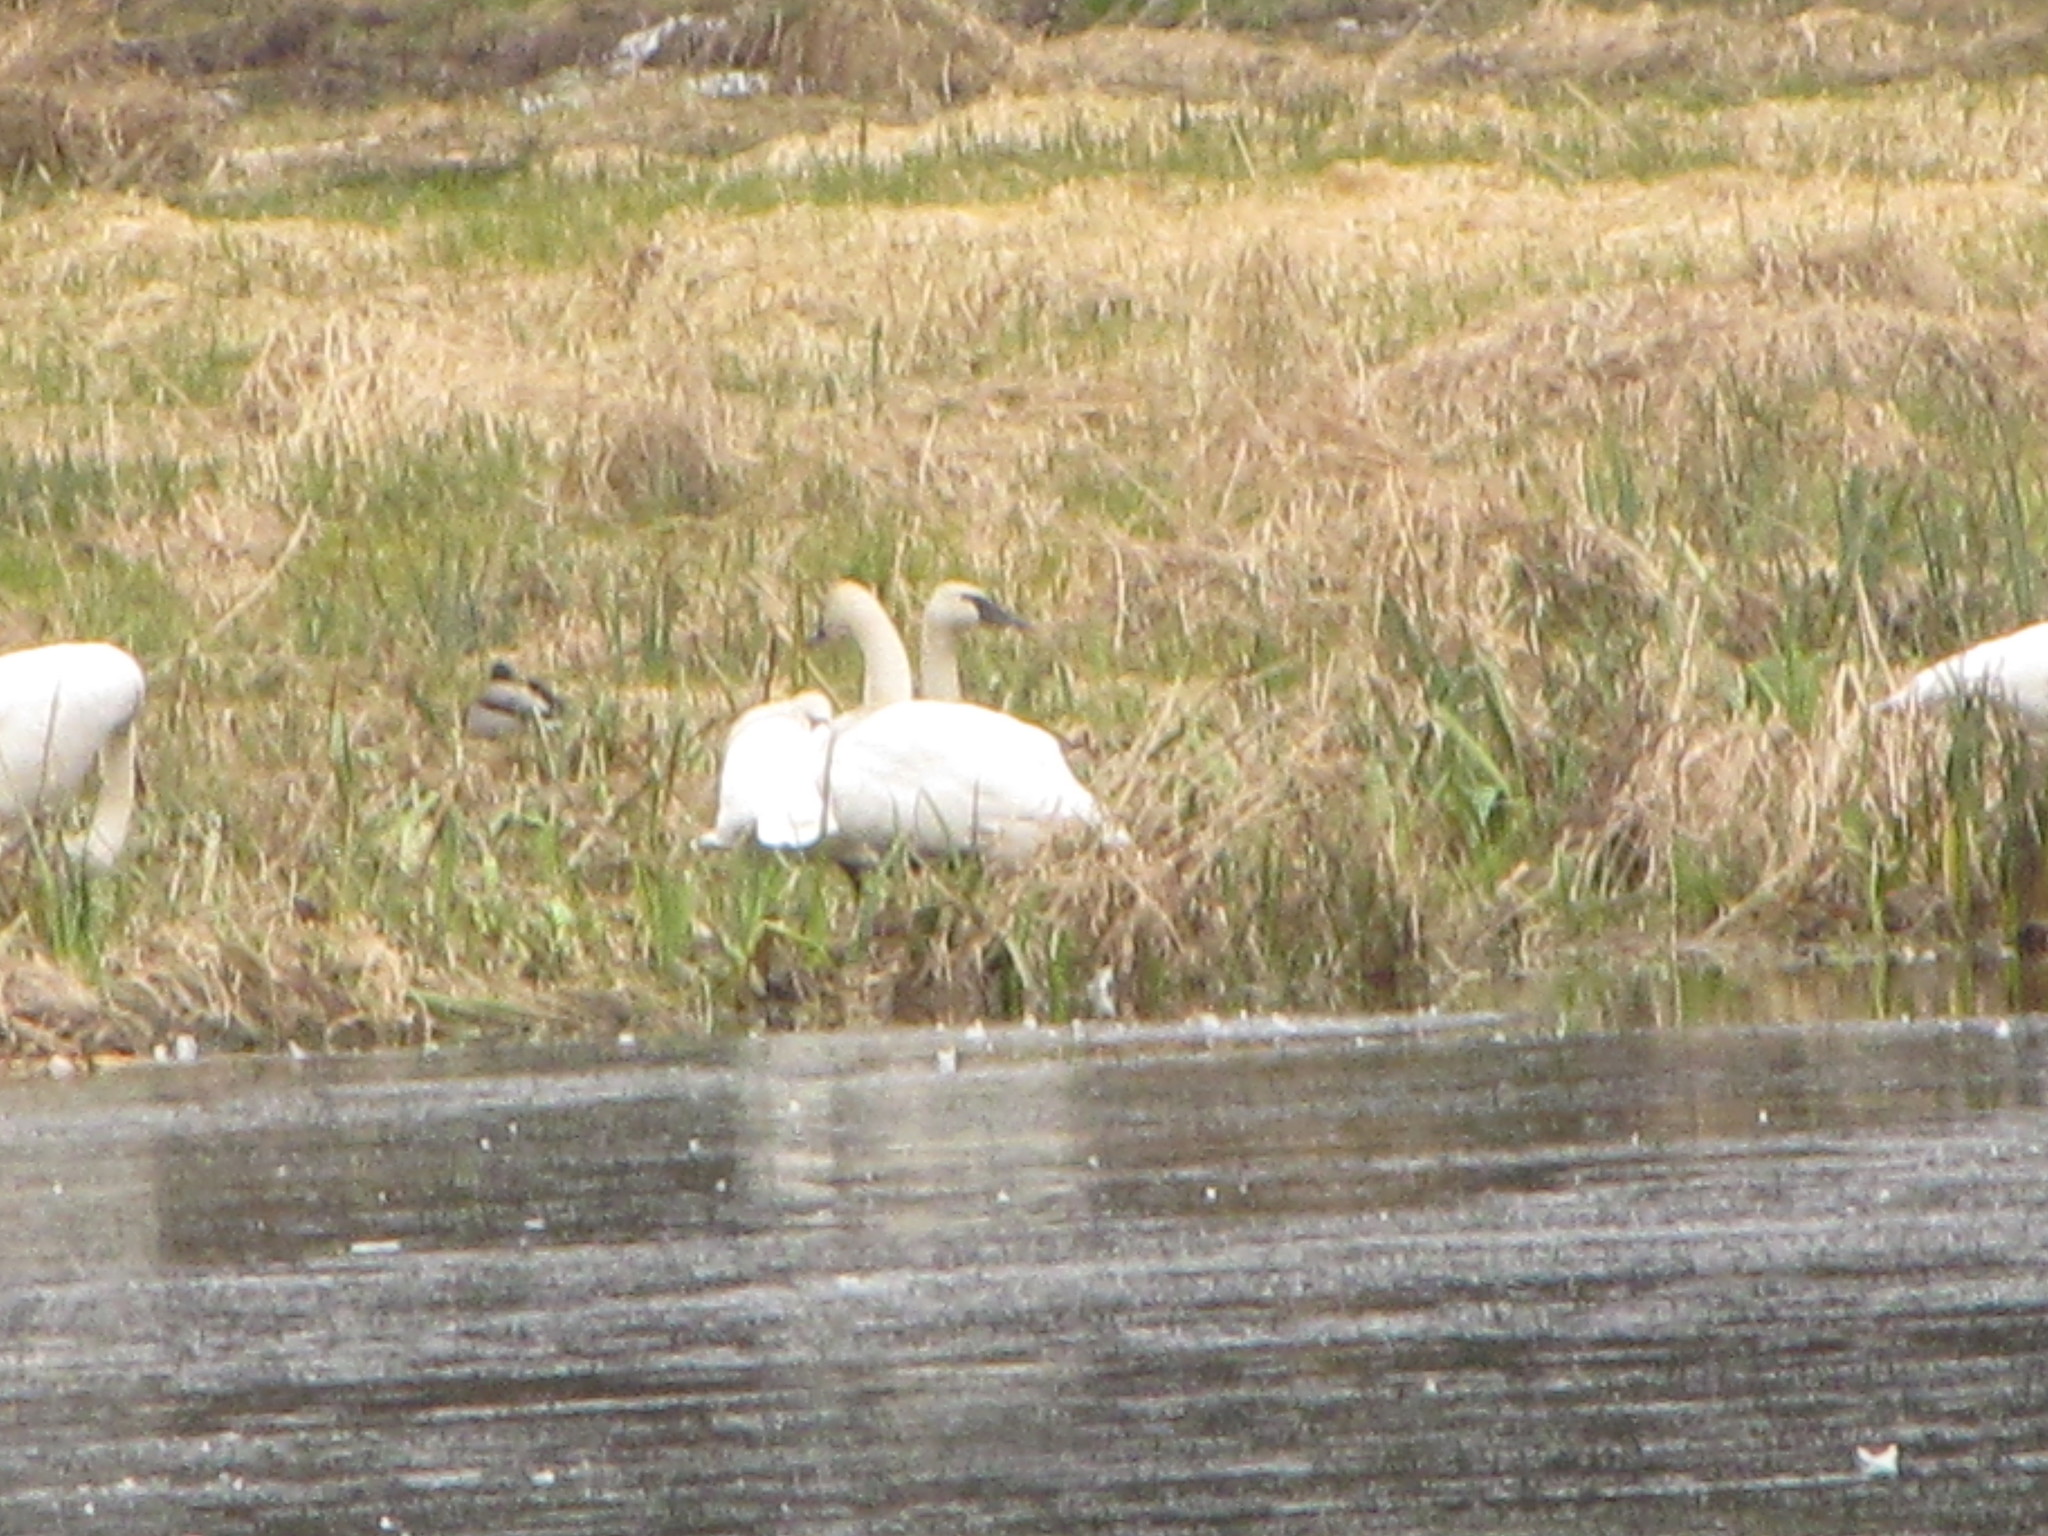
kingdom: Animalia
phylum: Chordata
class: Aves
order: Anseriformes
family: Anatidae
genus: Cygnus
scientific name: Cygnus buccinator
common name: Trumpeter swan
